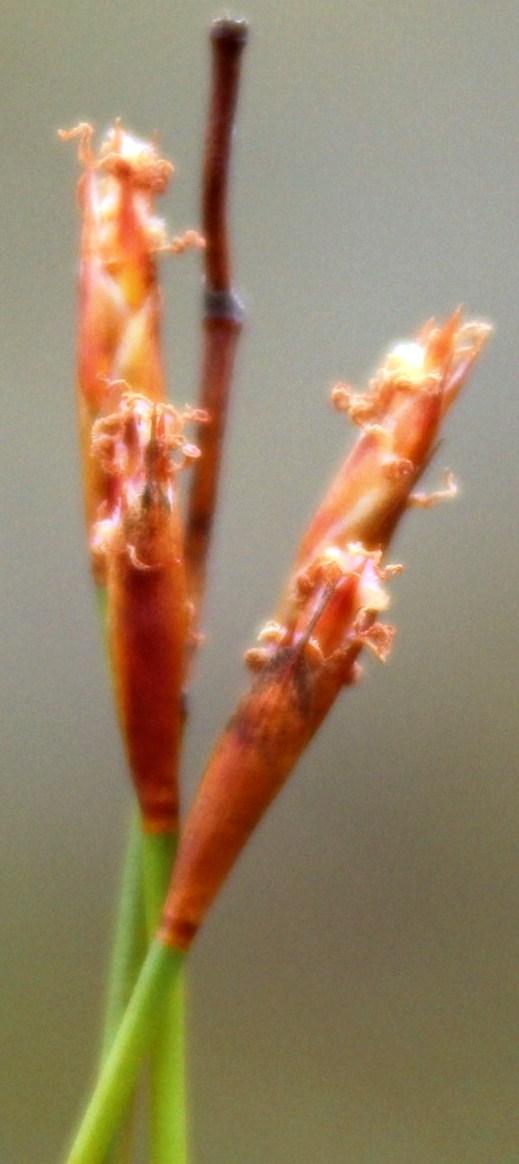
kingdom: Plantae
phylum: Tracheophyta
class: Liliopsida
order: Poales
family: Restionaceae
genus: Restio
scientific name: Restio vimineus
